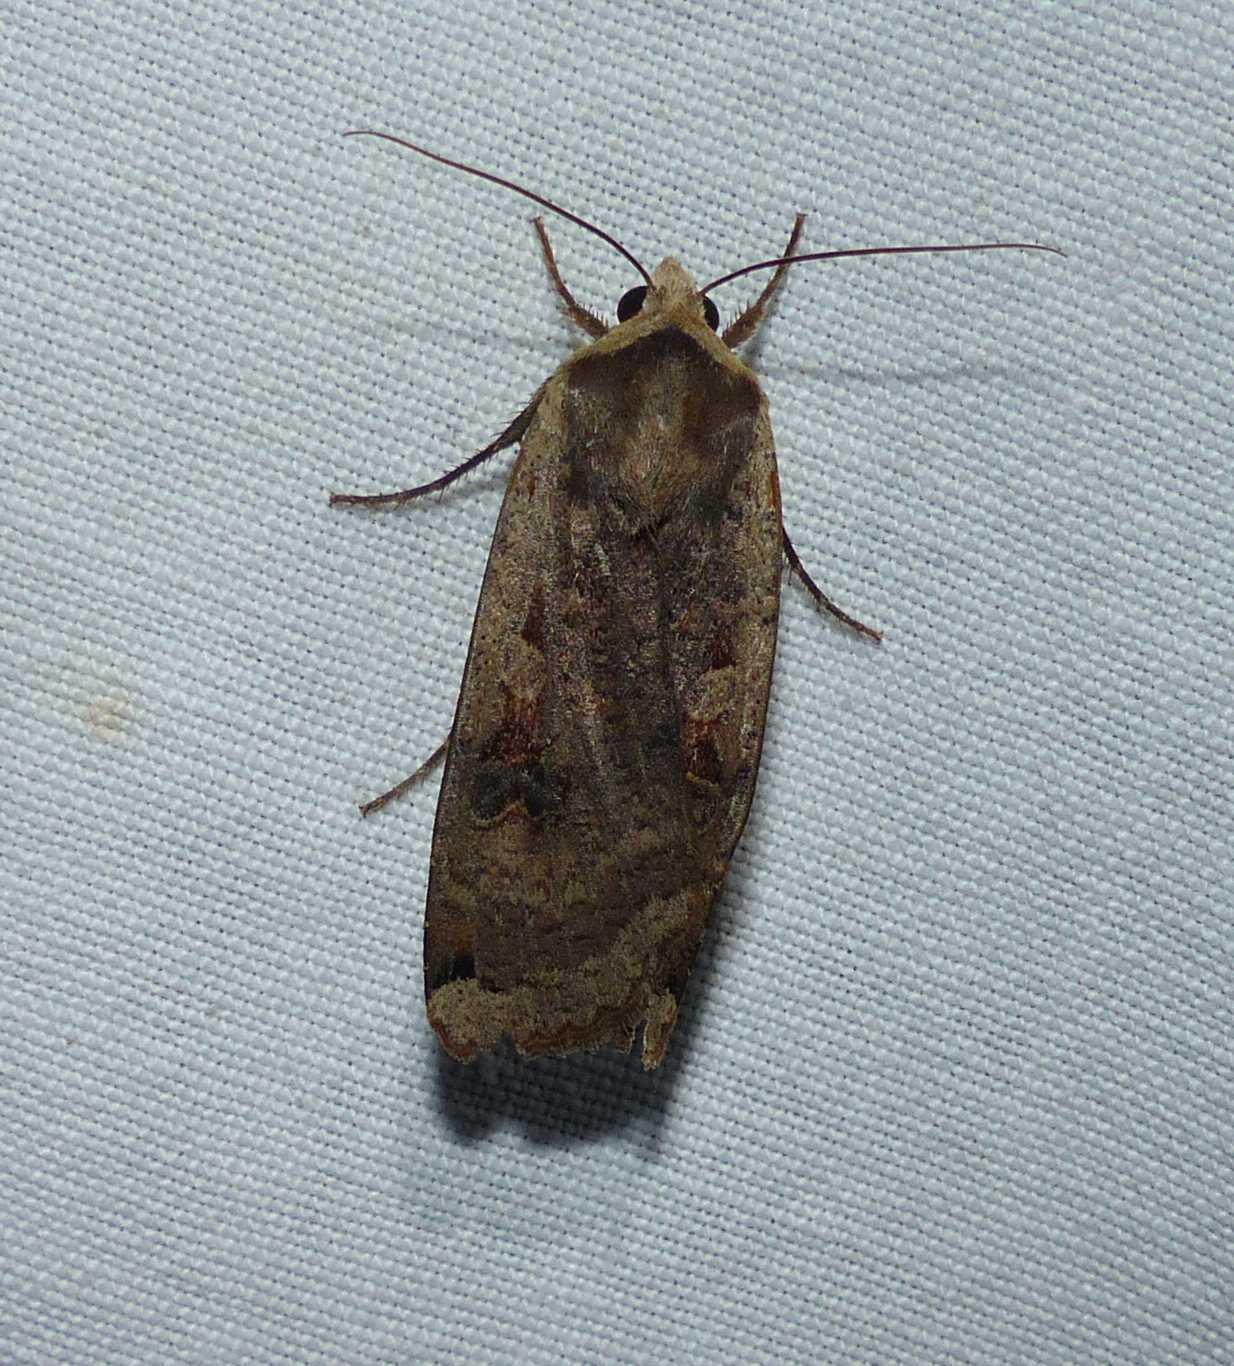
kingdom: Animalia
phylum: Arthropoda
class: Insecta
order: Lepidoptera
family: Noctuidae
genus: Noctua
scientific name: Noctua pronuba
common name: Large yellow underwing
